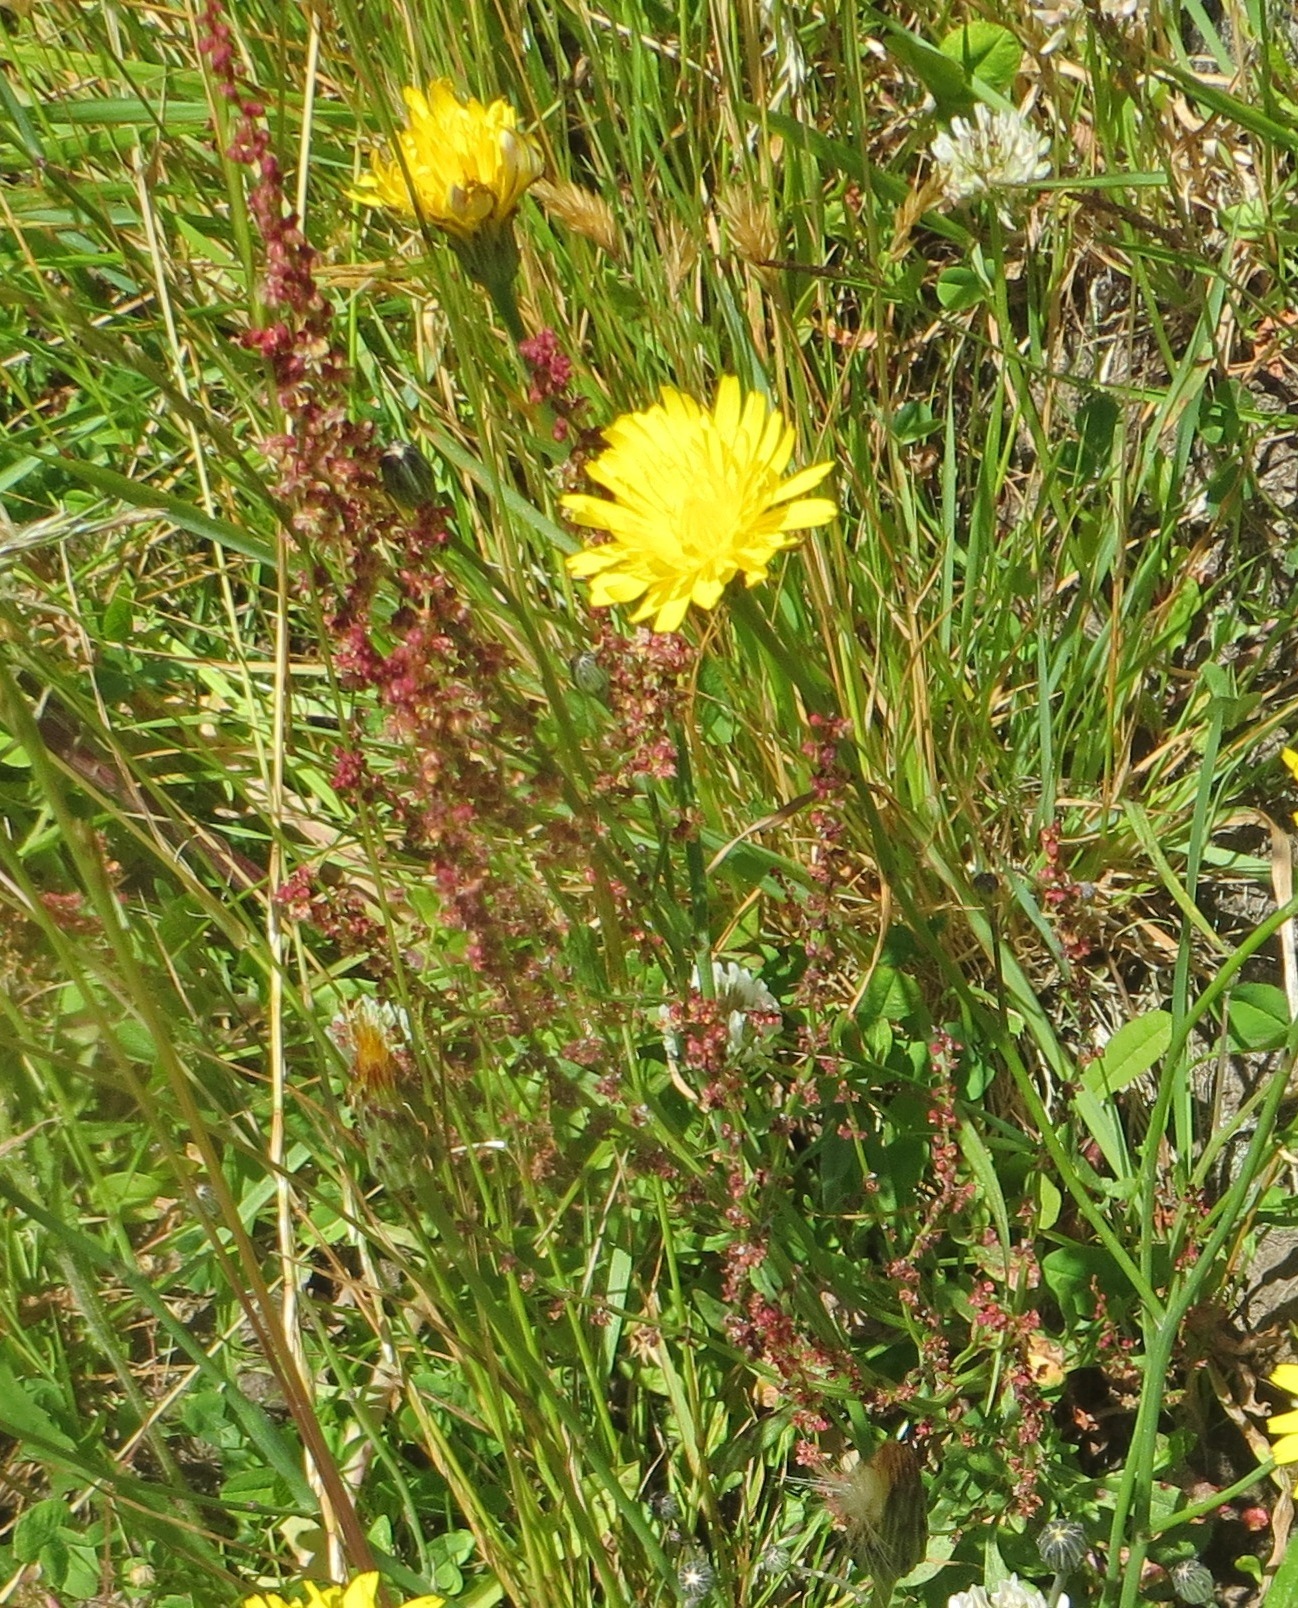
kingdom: Plantae
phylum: Tracheophyta
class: Magnoliopsida
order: Caryophyllales
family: Polygonaceae
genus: Rumex
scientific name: Rumex acetosella
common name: Common sheep sorrel
